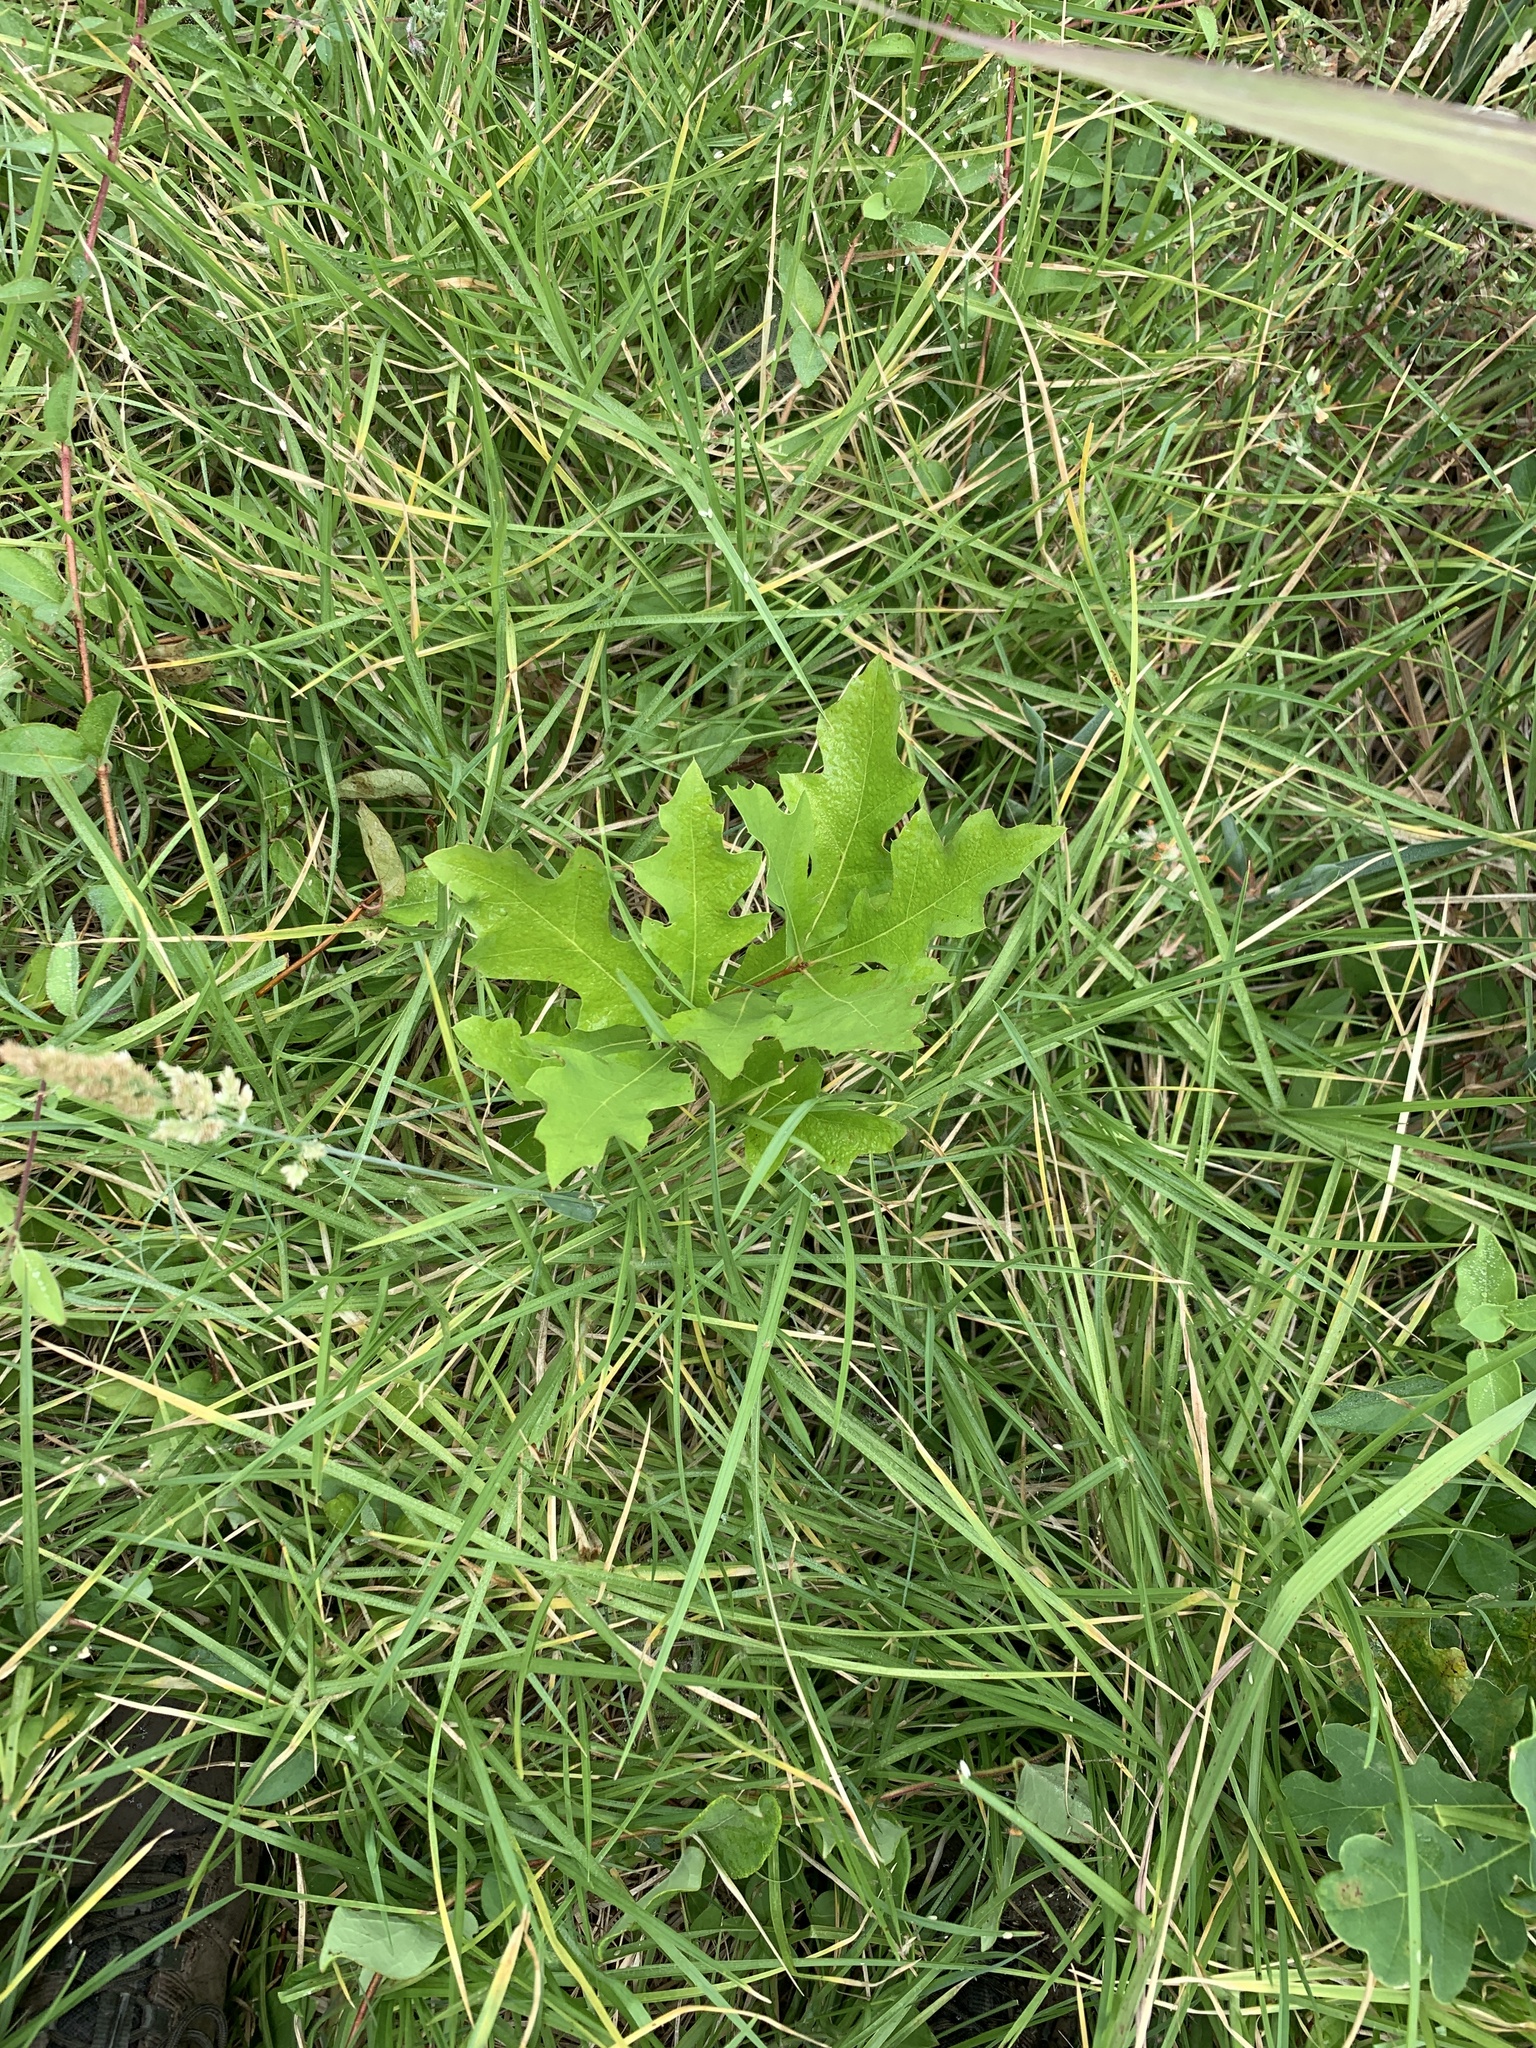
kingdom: Plantae
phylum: Tracheophyta
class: Magnoliopsida
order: Fagales
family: Fagaceae
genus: Quercus
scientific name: Quercus palustris
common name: Pin oak
